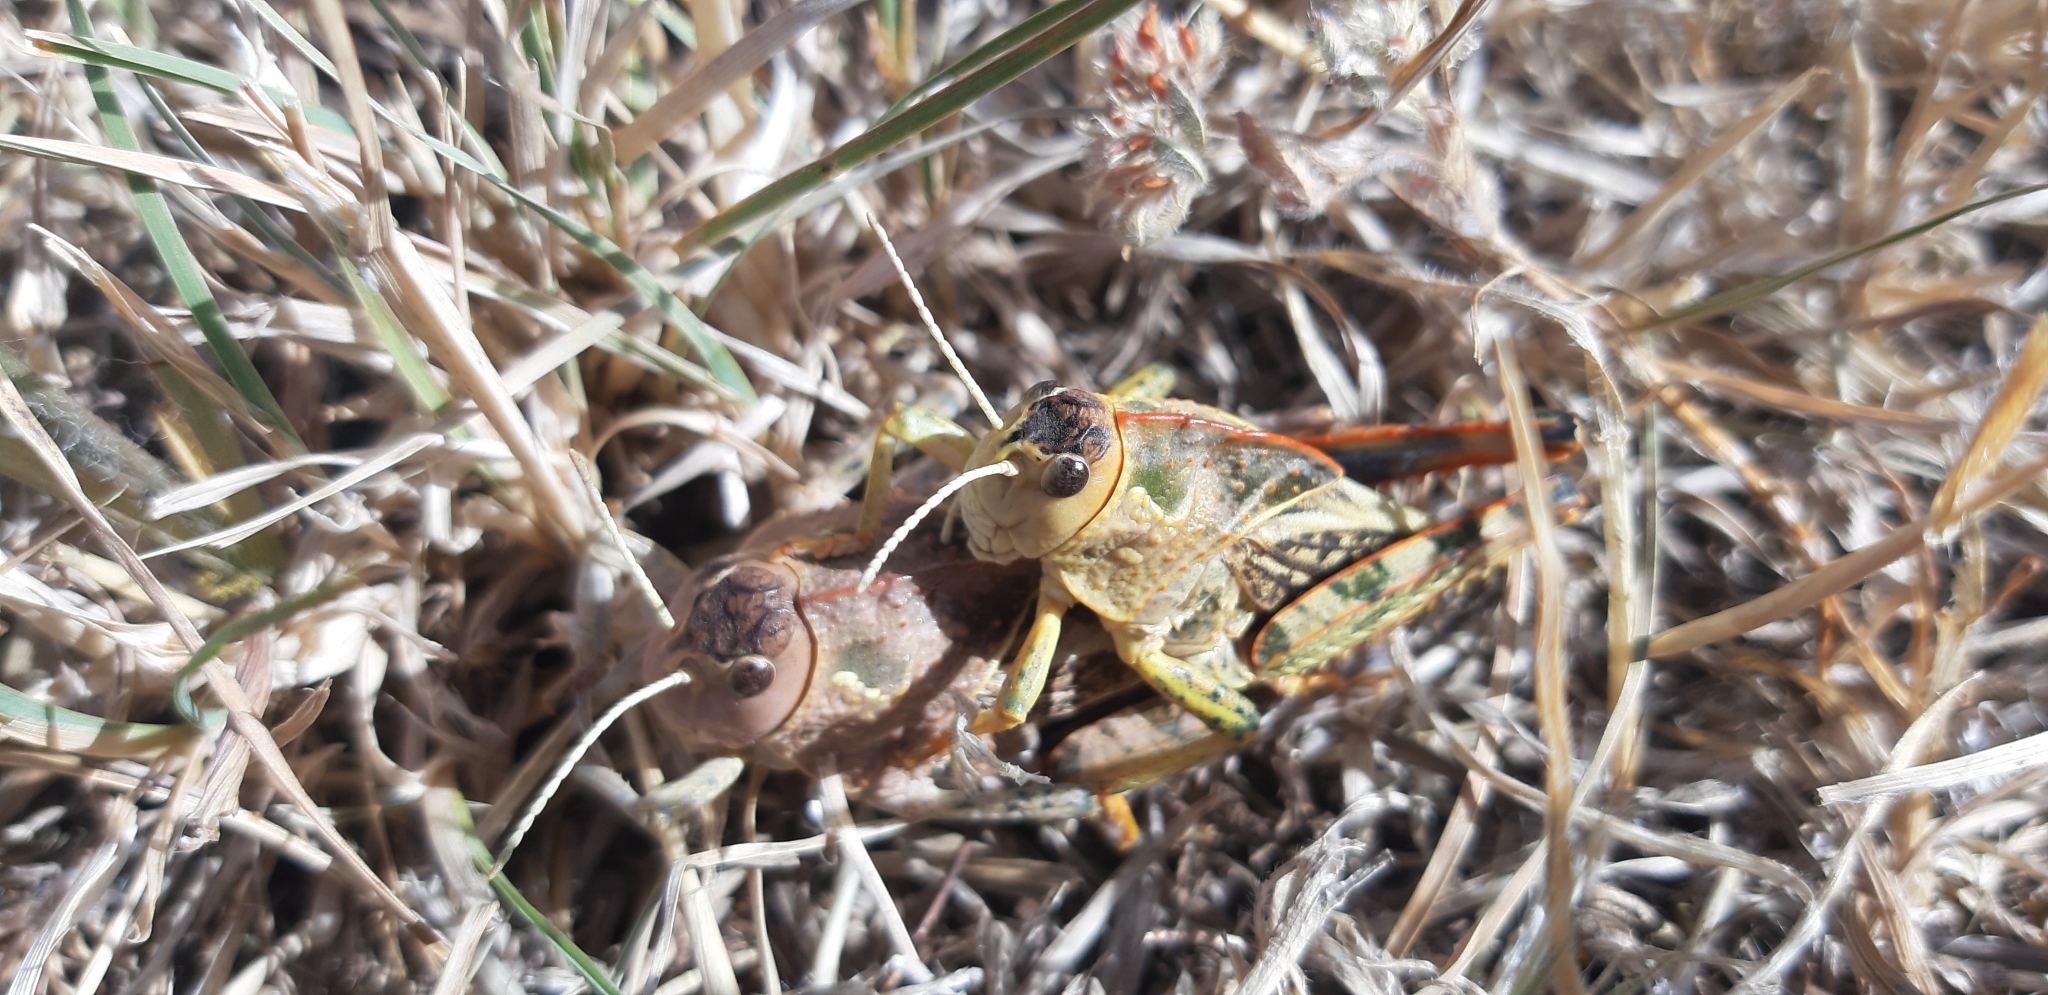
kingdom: Animalia
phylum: Arthropoda
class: Insecta
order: Orthoptera
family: Pamphagidae
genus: Prionotropis
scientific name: Prionotropis appula
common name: Apulian stone grasshopper
